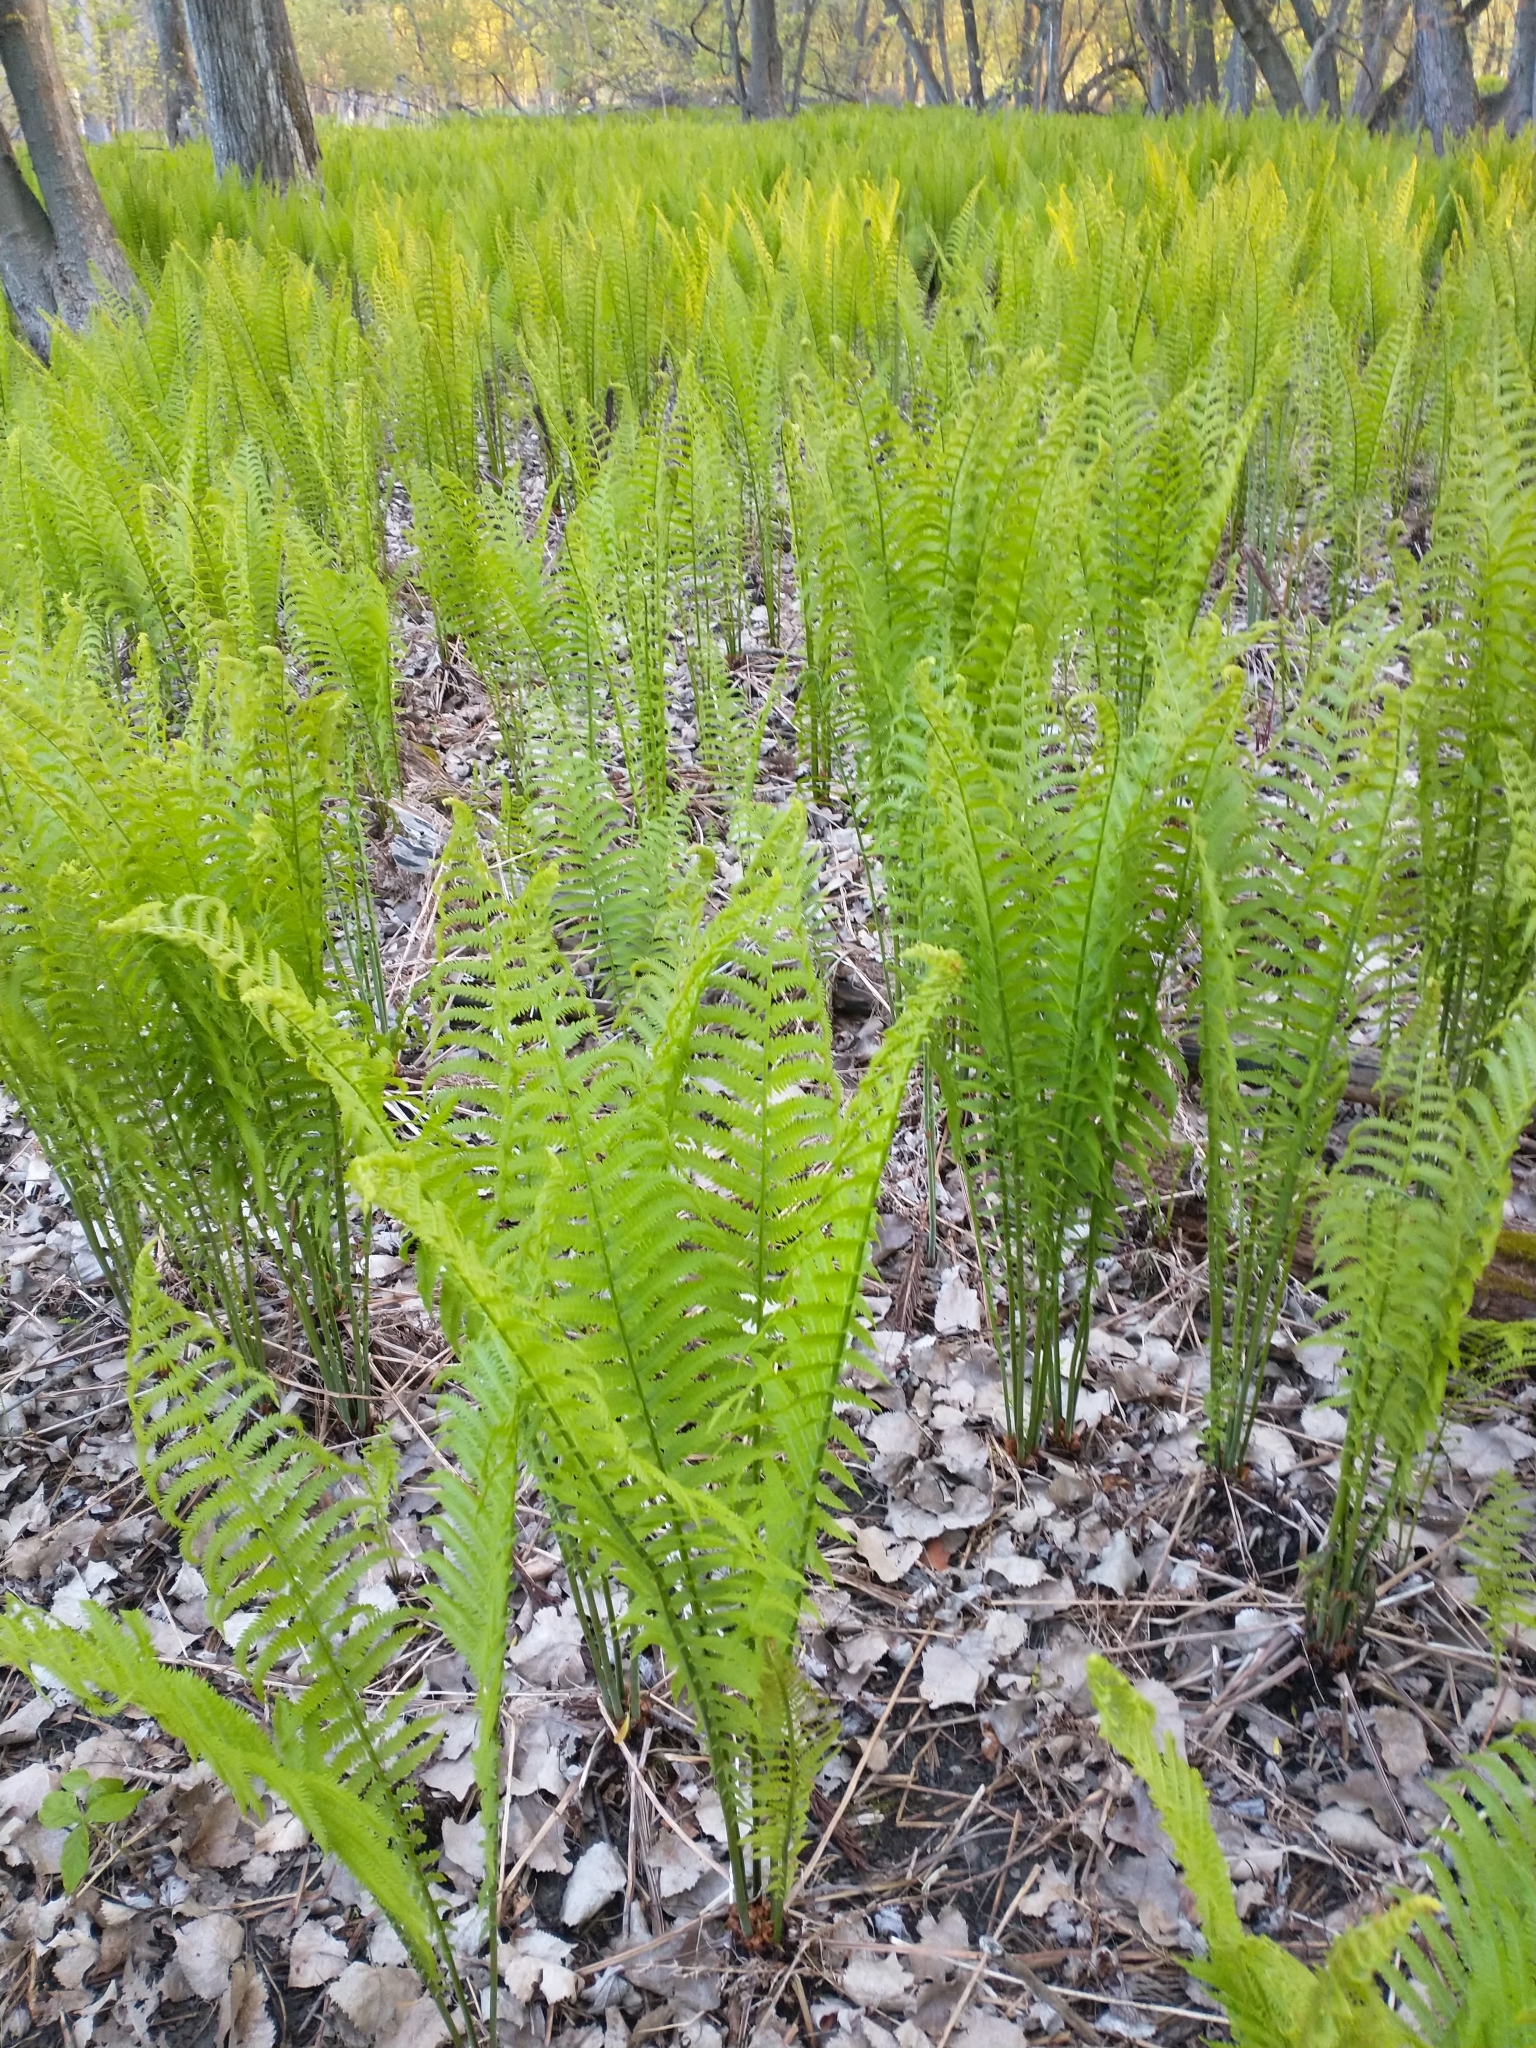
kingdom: Plantae
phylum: Tracheophyta
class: Polypodiopsida
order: Polypodiales
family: Onocleaceae
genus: Matteuccia
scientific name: Matteuccia struthiopteris
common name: Ostrich fern
